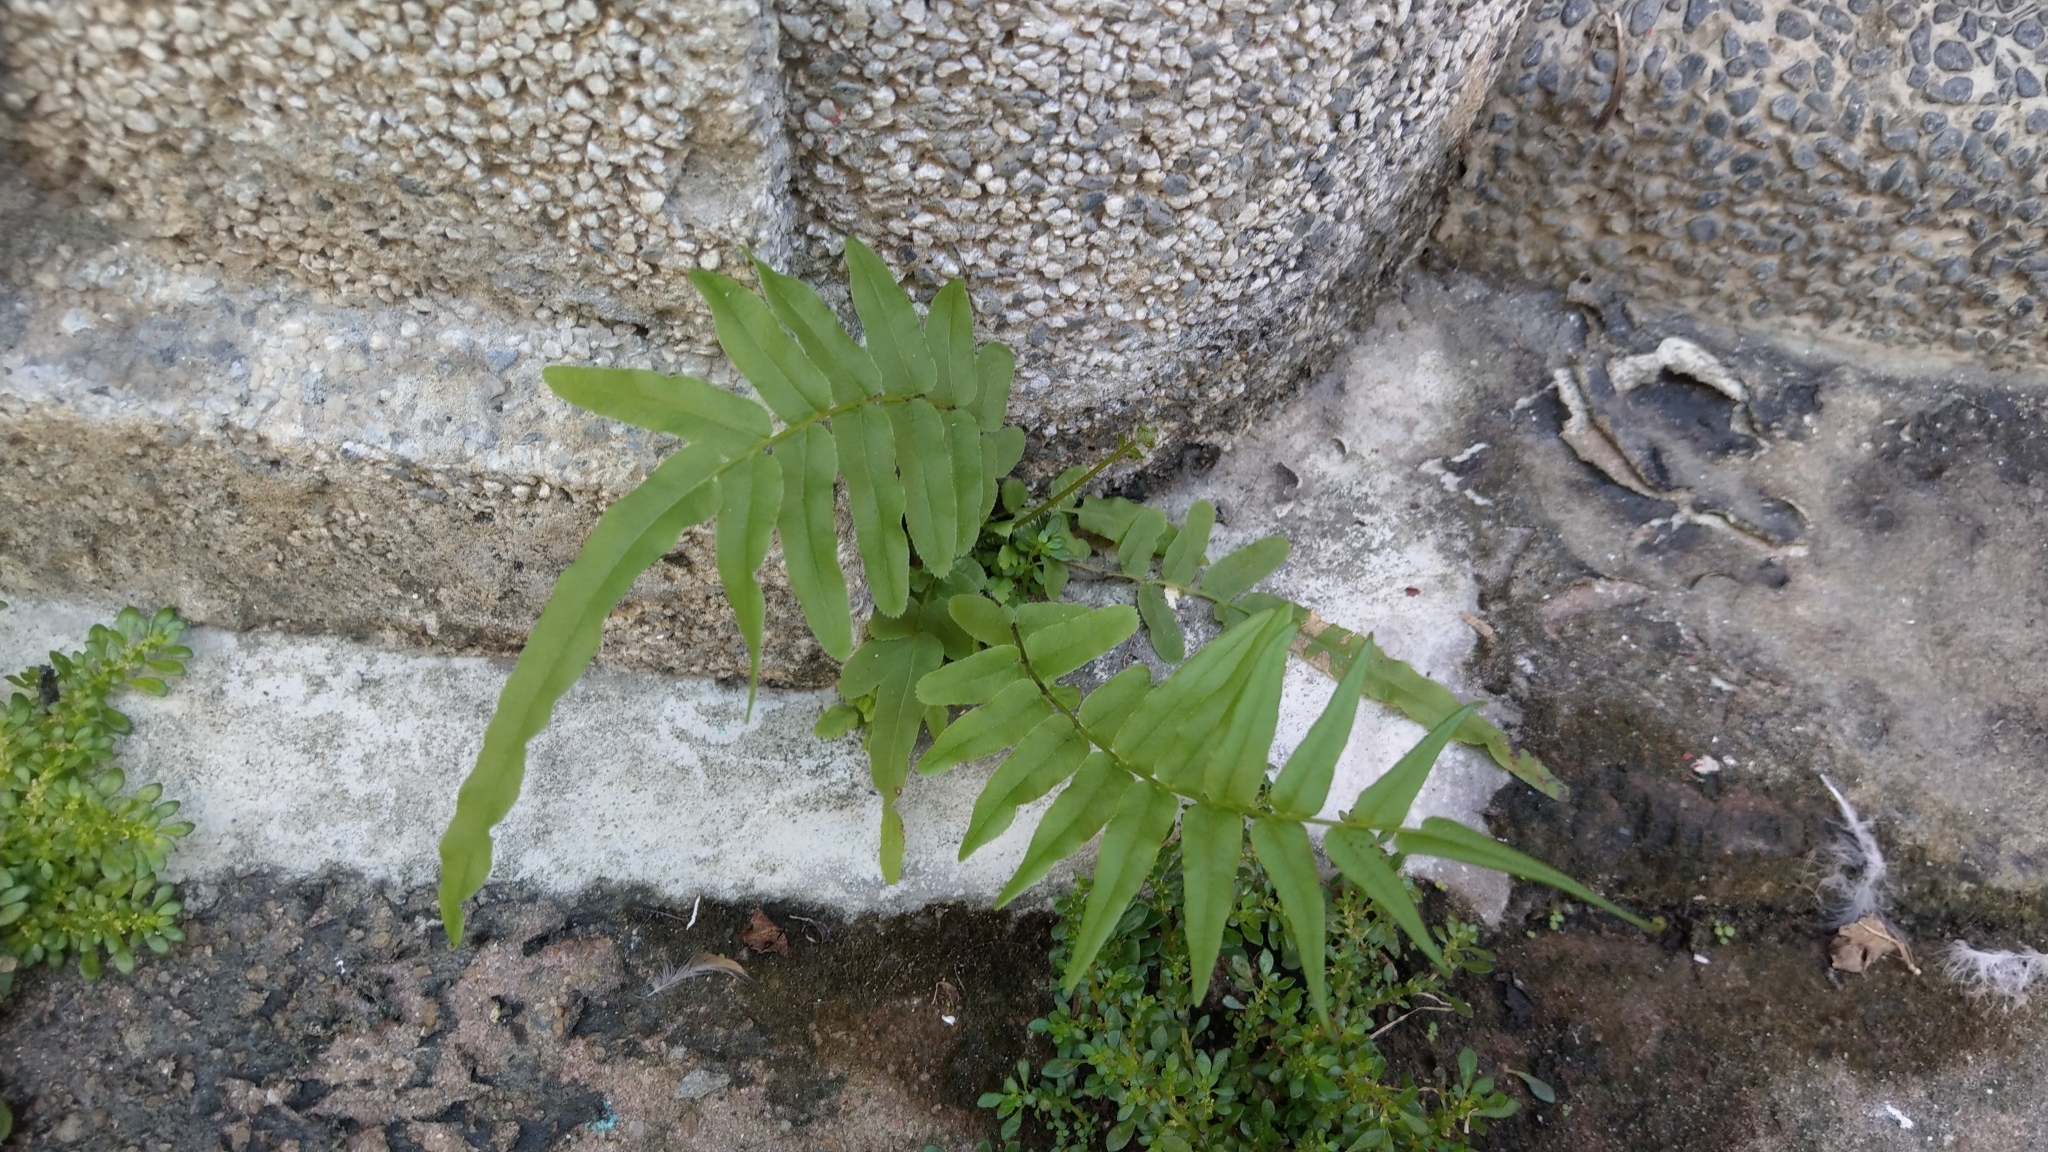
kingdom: Plantae
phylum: Tracheophyta
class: Polypodiopsida
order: Polypodiales
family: Pteridaceae
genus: Pteris
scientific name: Pteris vittata
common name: Ladder brake
